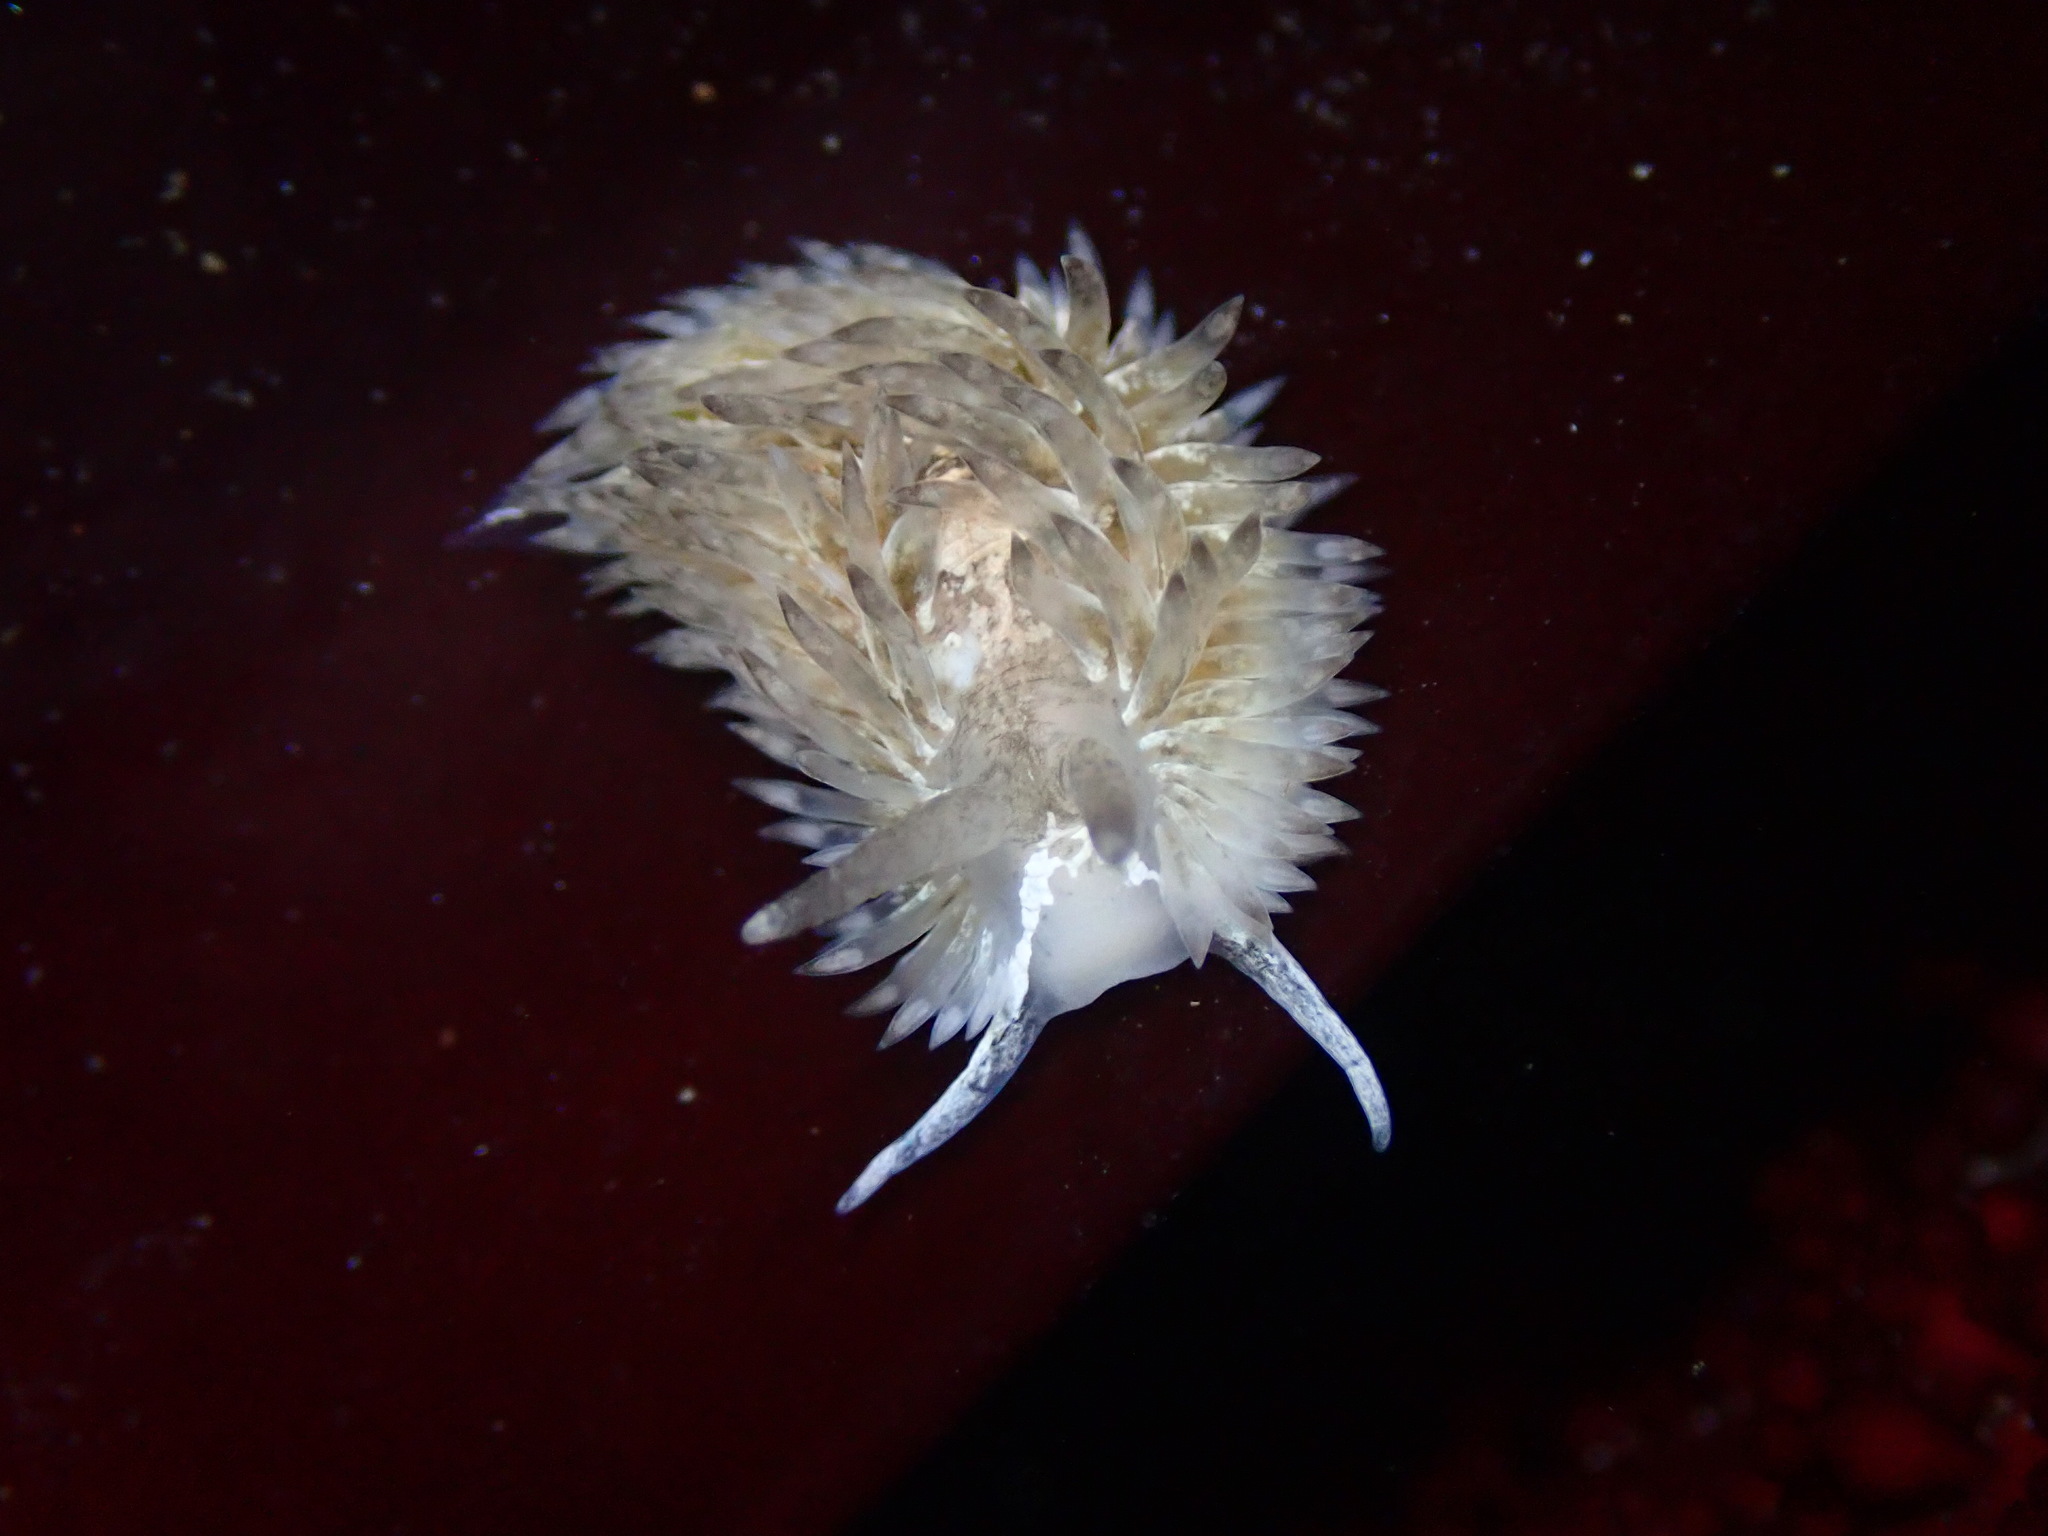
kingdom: Animalia
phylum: Mollusca
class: Gastropoda
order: Nudibranchia
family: Aeolidiidae
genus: Aeolidia
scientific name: Aeolidia loui
